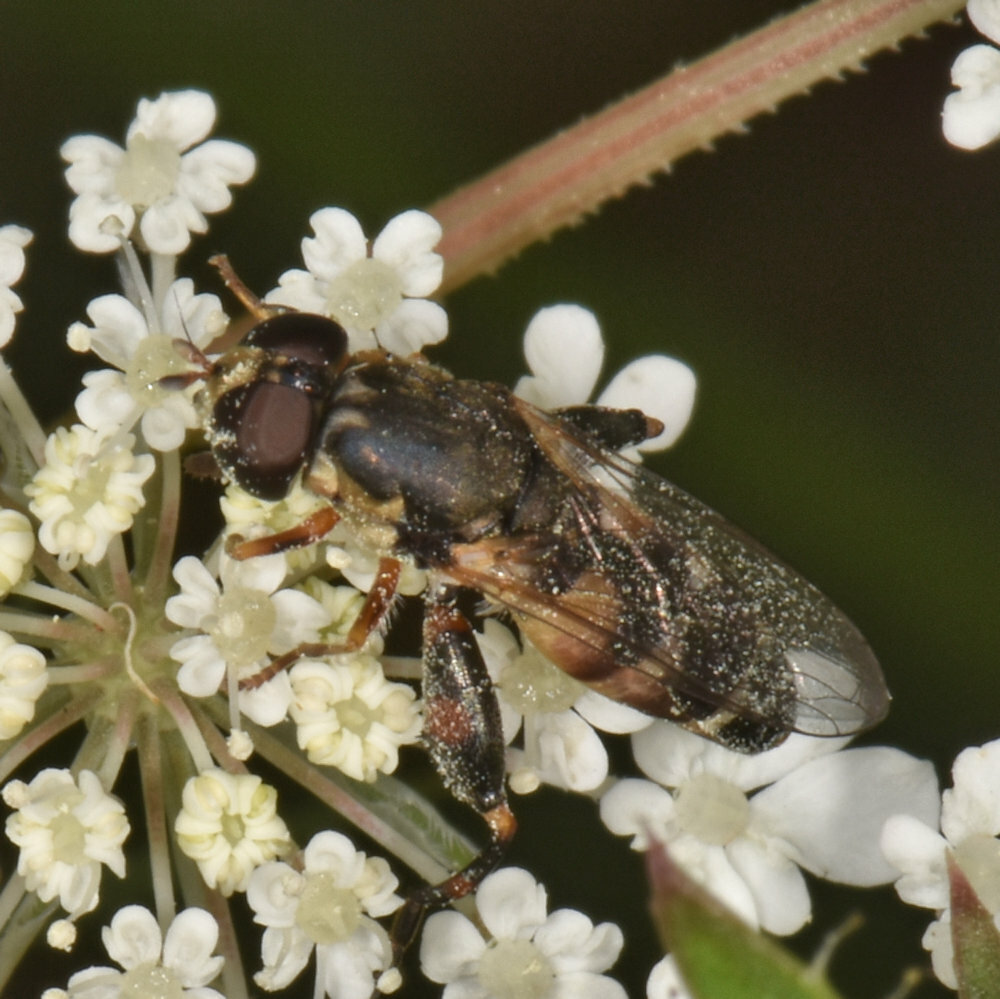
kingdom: Animalia
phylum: Arthropoda
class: Insecta
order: Diptera
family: Syrphidae
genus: Syritta
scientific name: Syritta pipiens
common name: Hover fly
